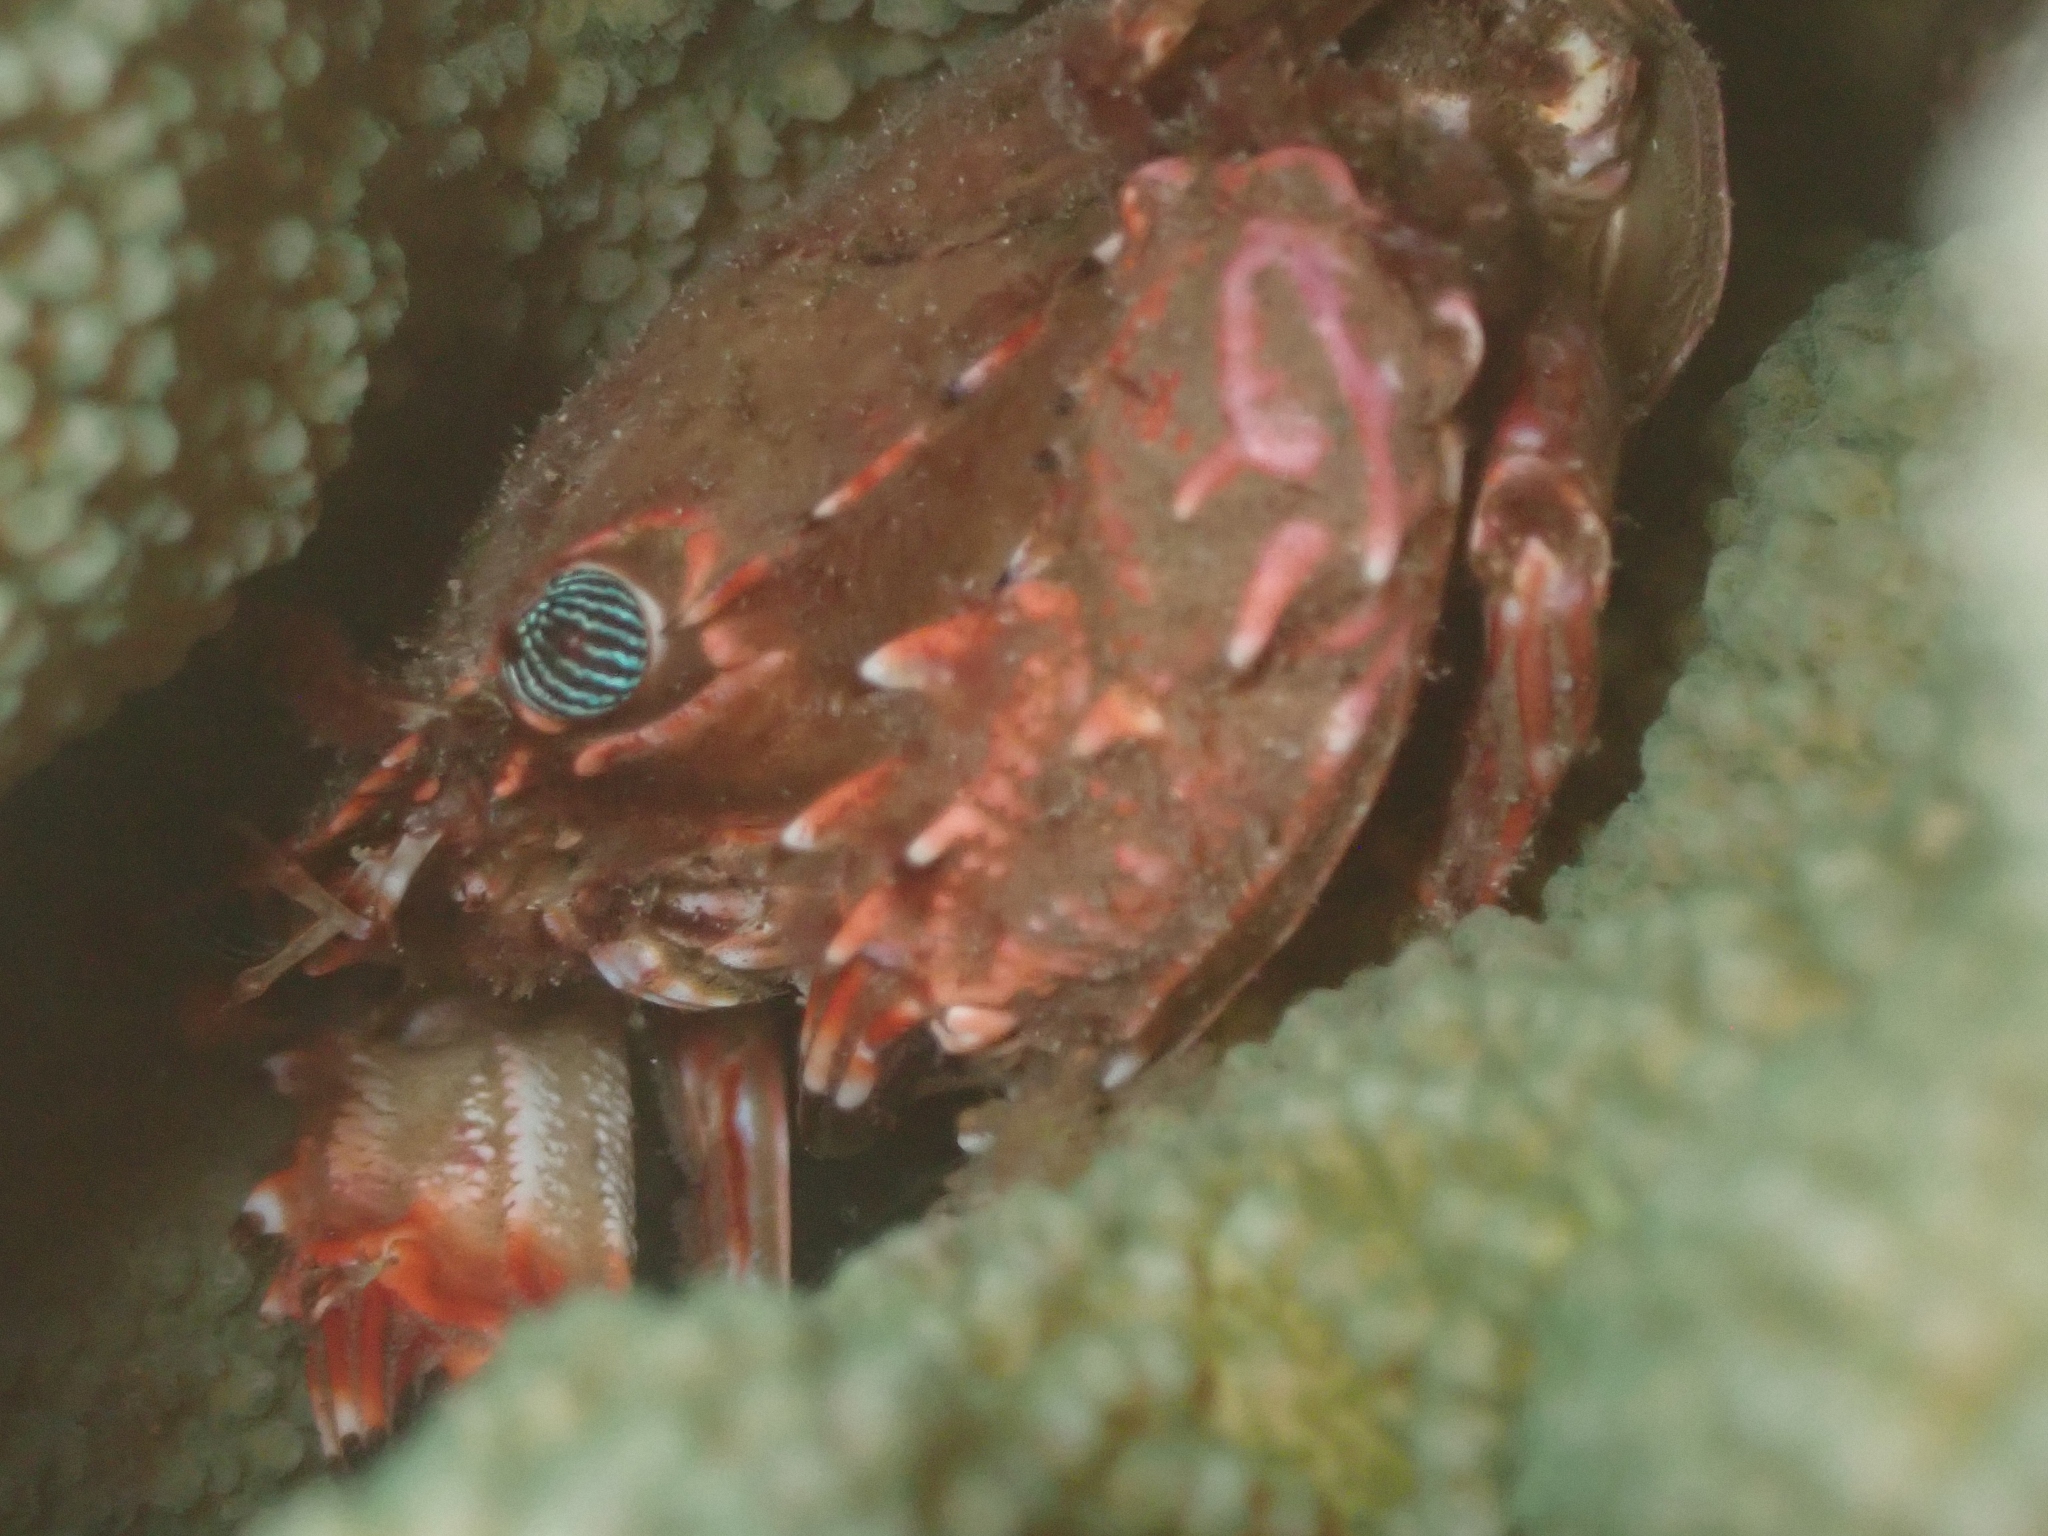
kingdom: Animalia
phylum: Arthropoda
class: Malacostraca
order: Decapoda
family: Portunidae
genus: Goniosupradens
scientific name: Goniosupradens hawaiensis
